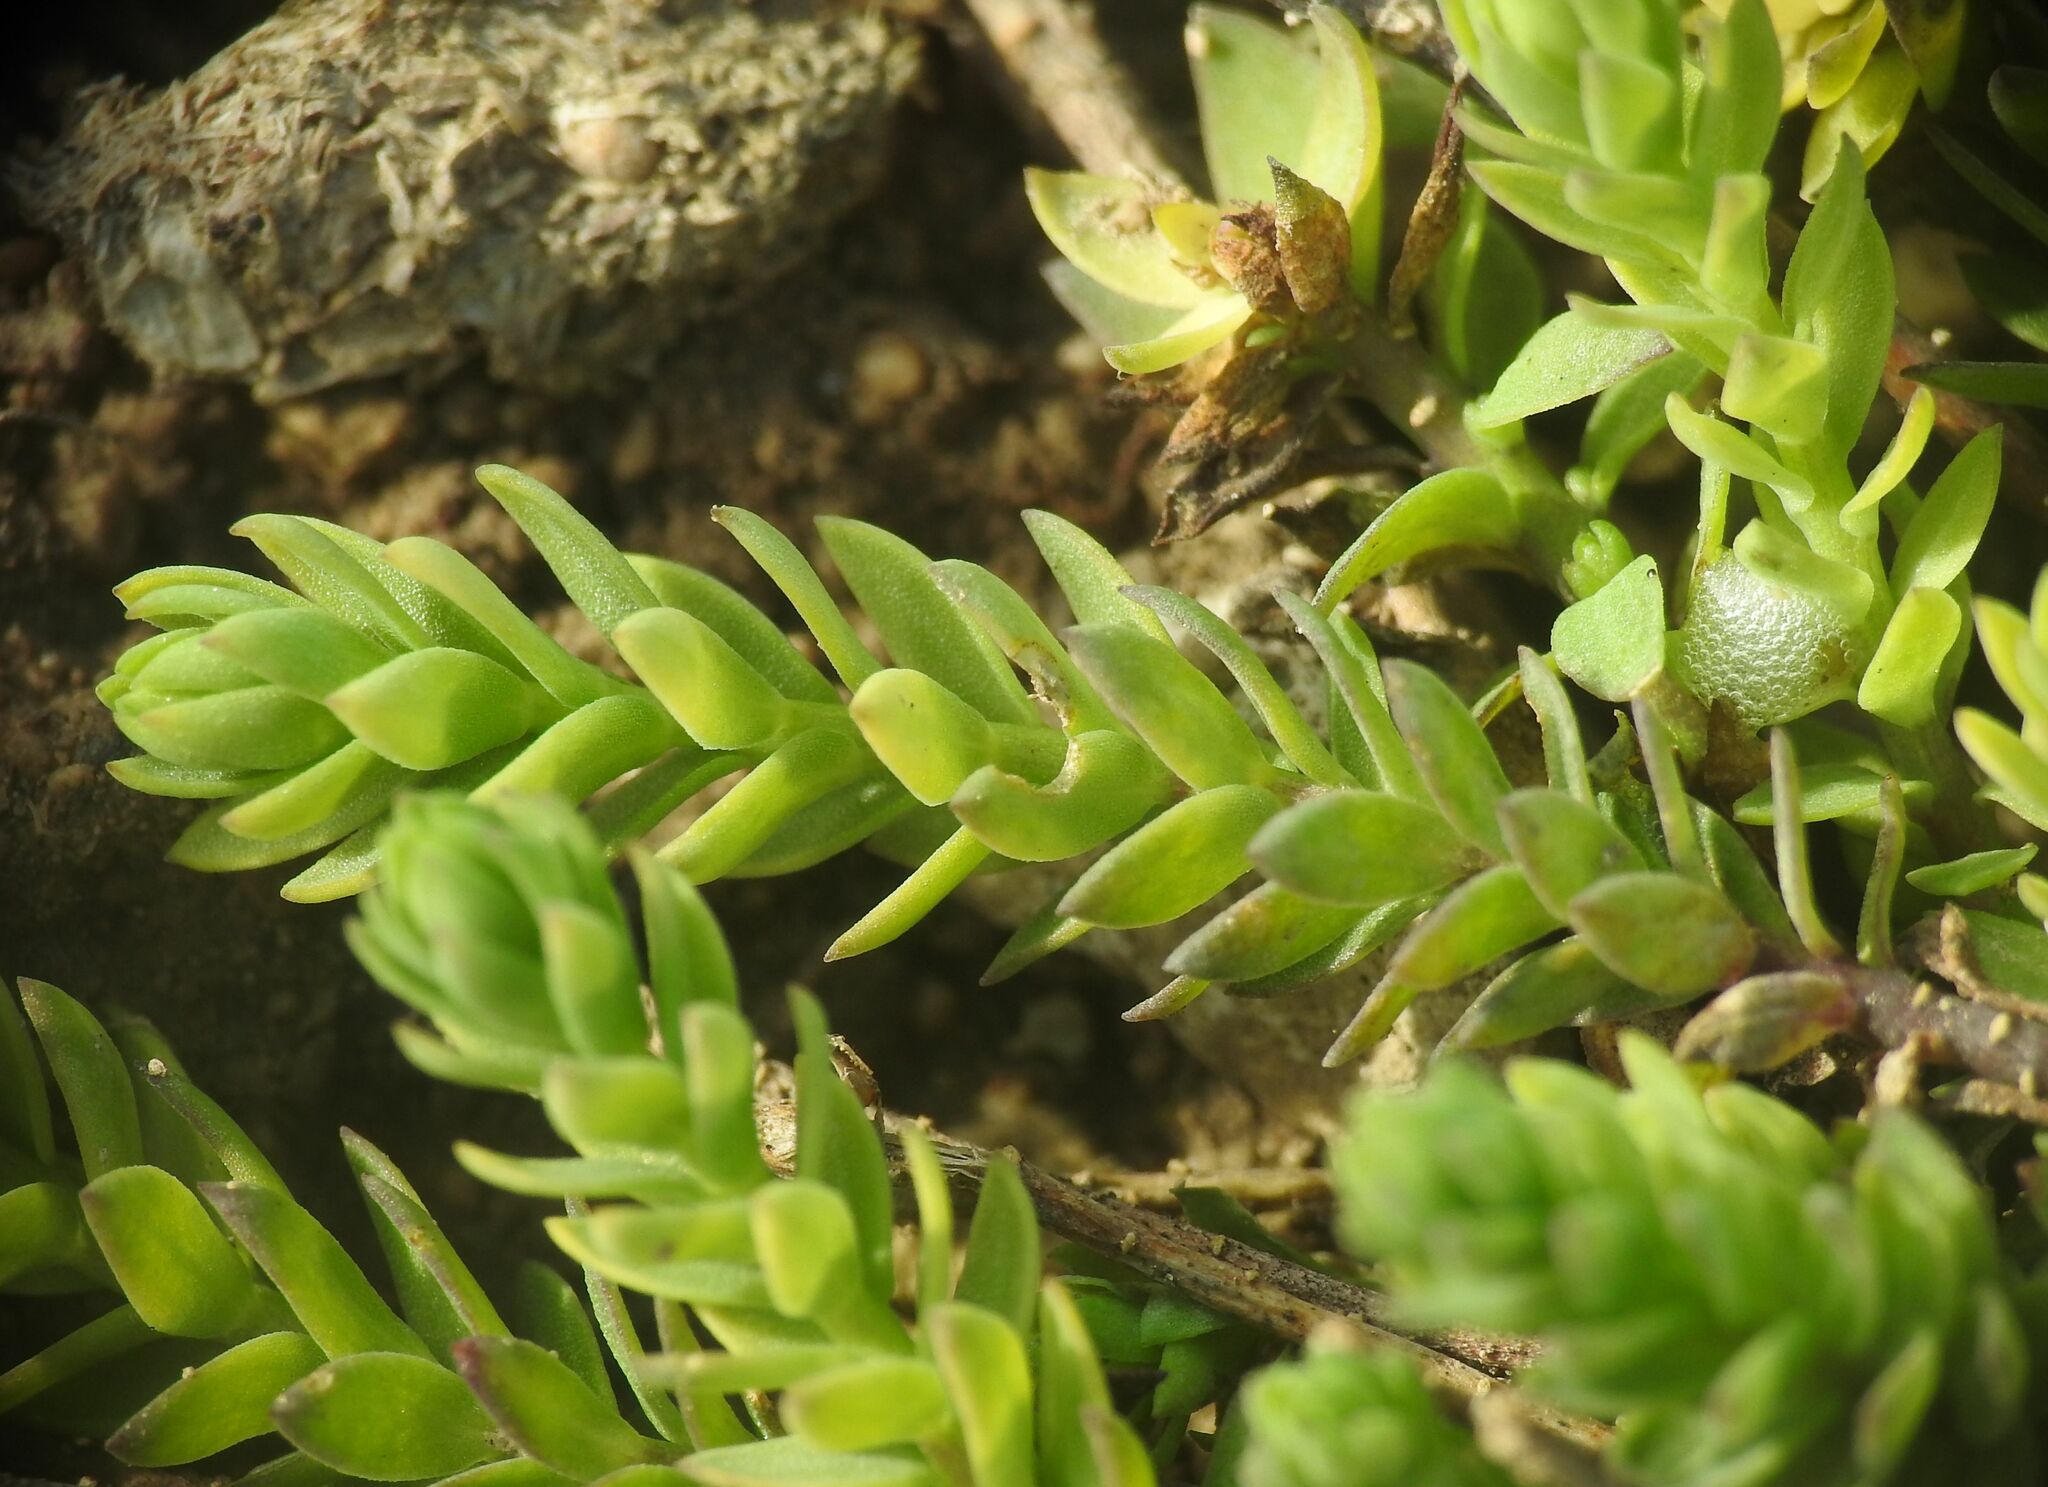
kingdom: Plantae
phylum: Tracheophyta
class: Magnoliopsida
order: Ericales
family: Primulaceae
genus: Lysimachia
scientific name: Lysimachia linum-stellatum
